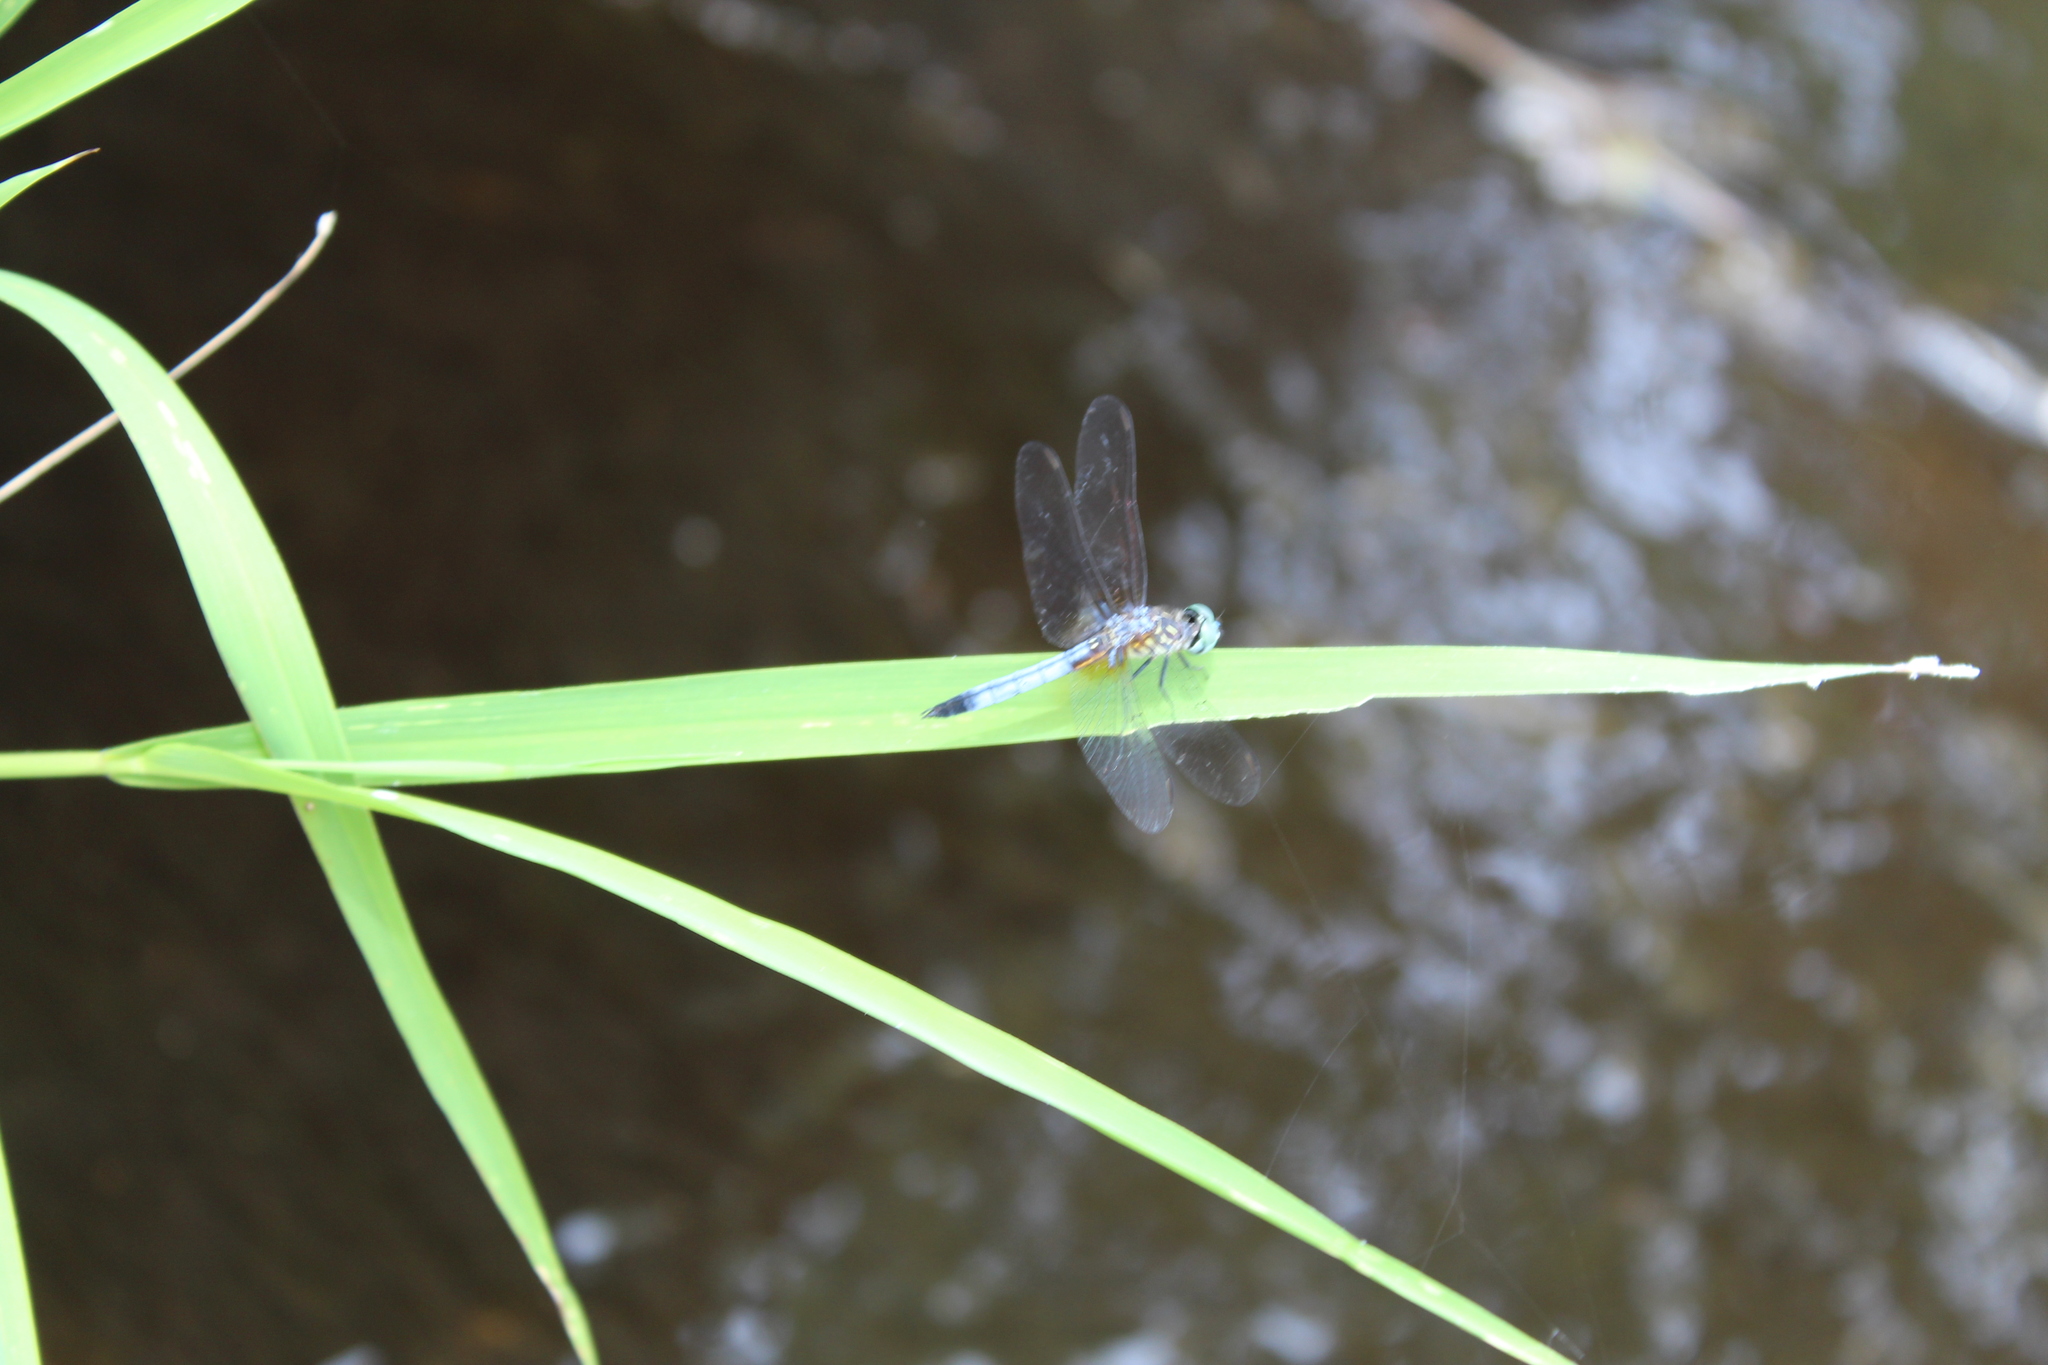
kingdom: Animalia
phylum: Arthropoda
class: Insecta
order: Odonata
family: Libellulidae
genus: Pachydiplax
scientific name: Pachydiplax longipennis
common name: Blue dasher
